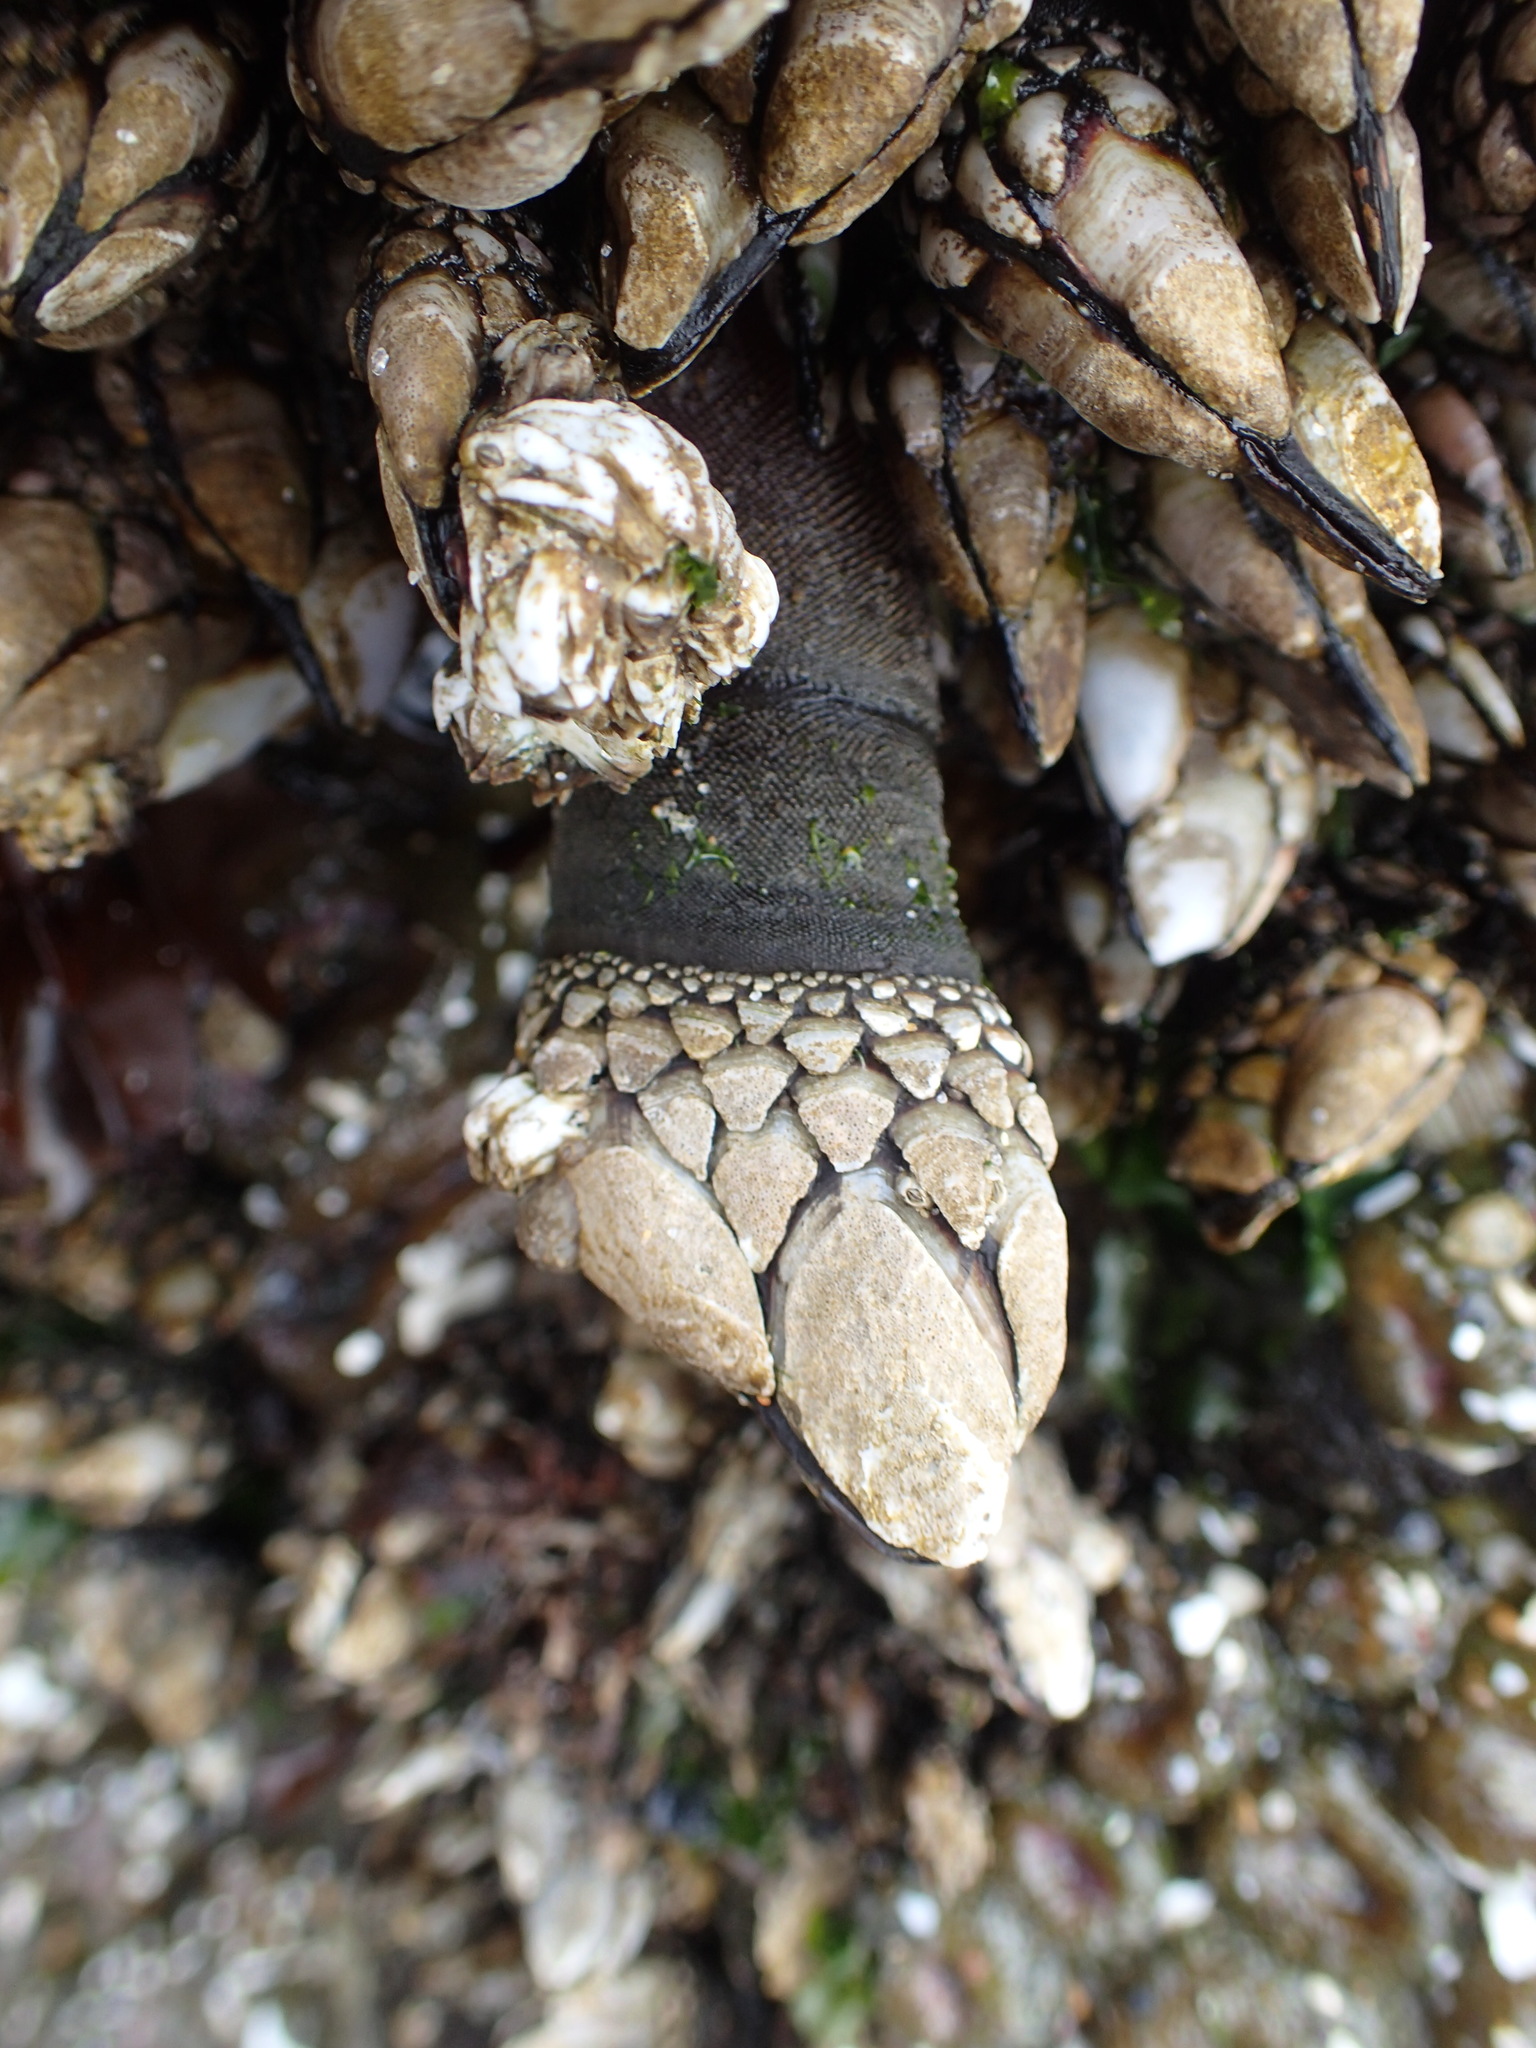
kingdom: Animalia
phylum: Arthropoda
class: Maxillopoda
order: Pedunculata
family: Pollicipedidae
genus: Pollicipes
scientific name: Pollicipes polymerus
